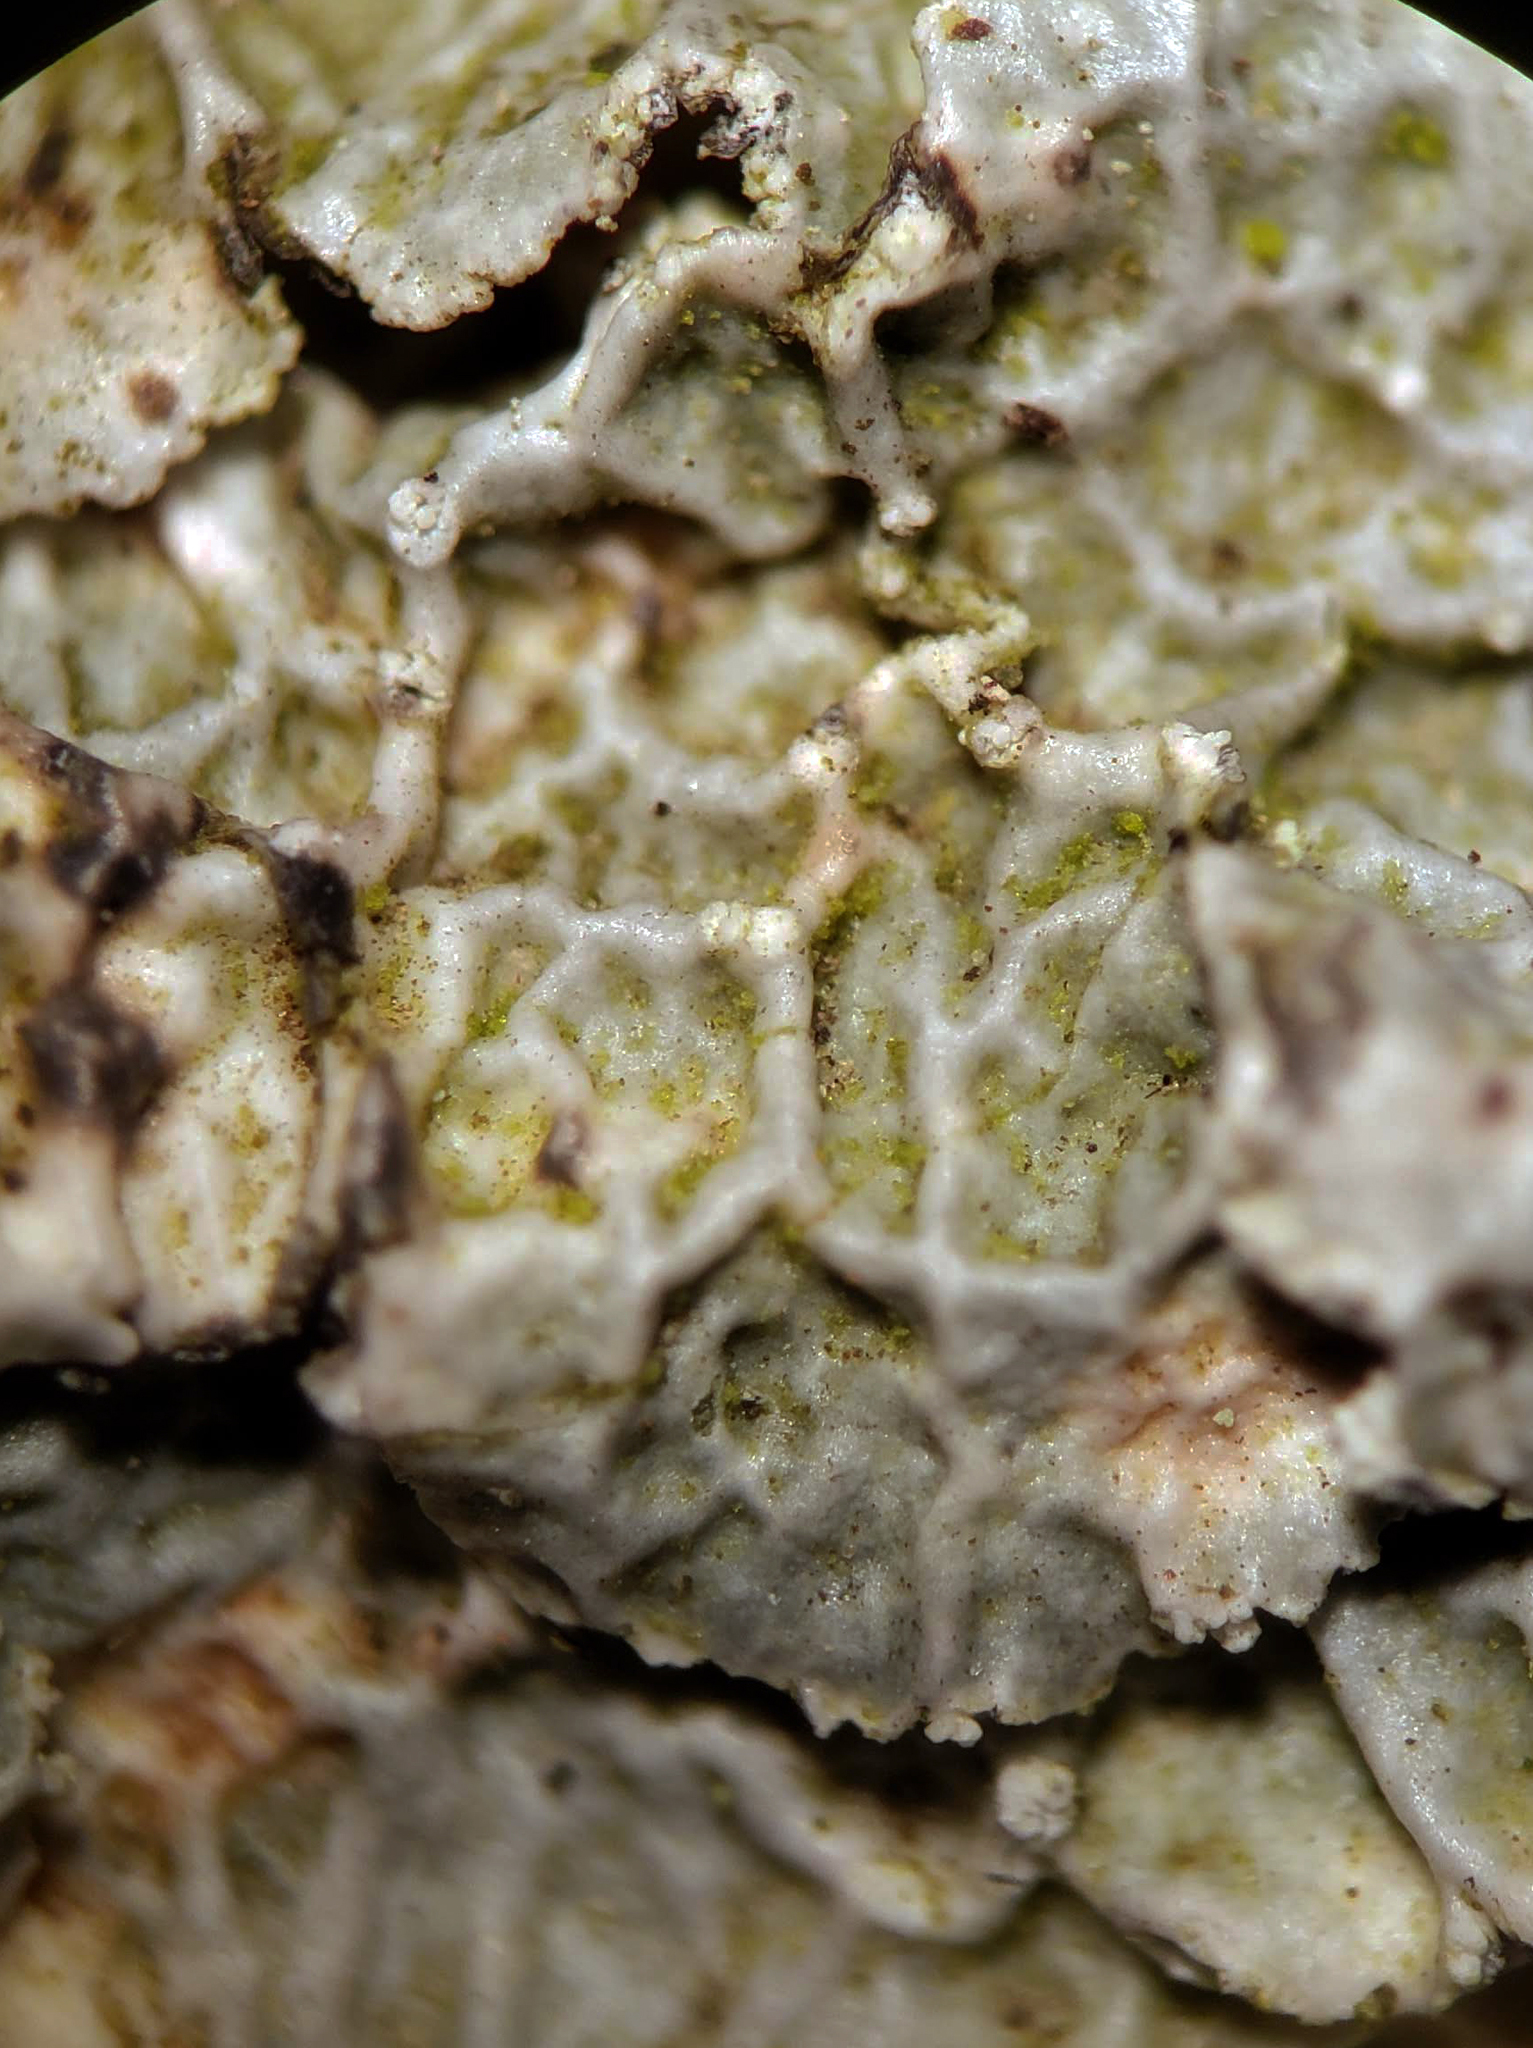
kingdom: Fungi
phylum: Ascomycota
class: Lecanoromycetes
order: Lecanorales
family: Parmeliaceae
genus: Punctelia
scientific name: Punctelia perreticulata
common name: Powdered speckleback lichen
